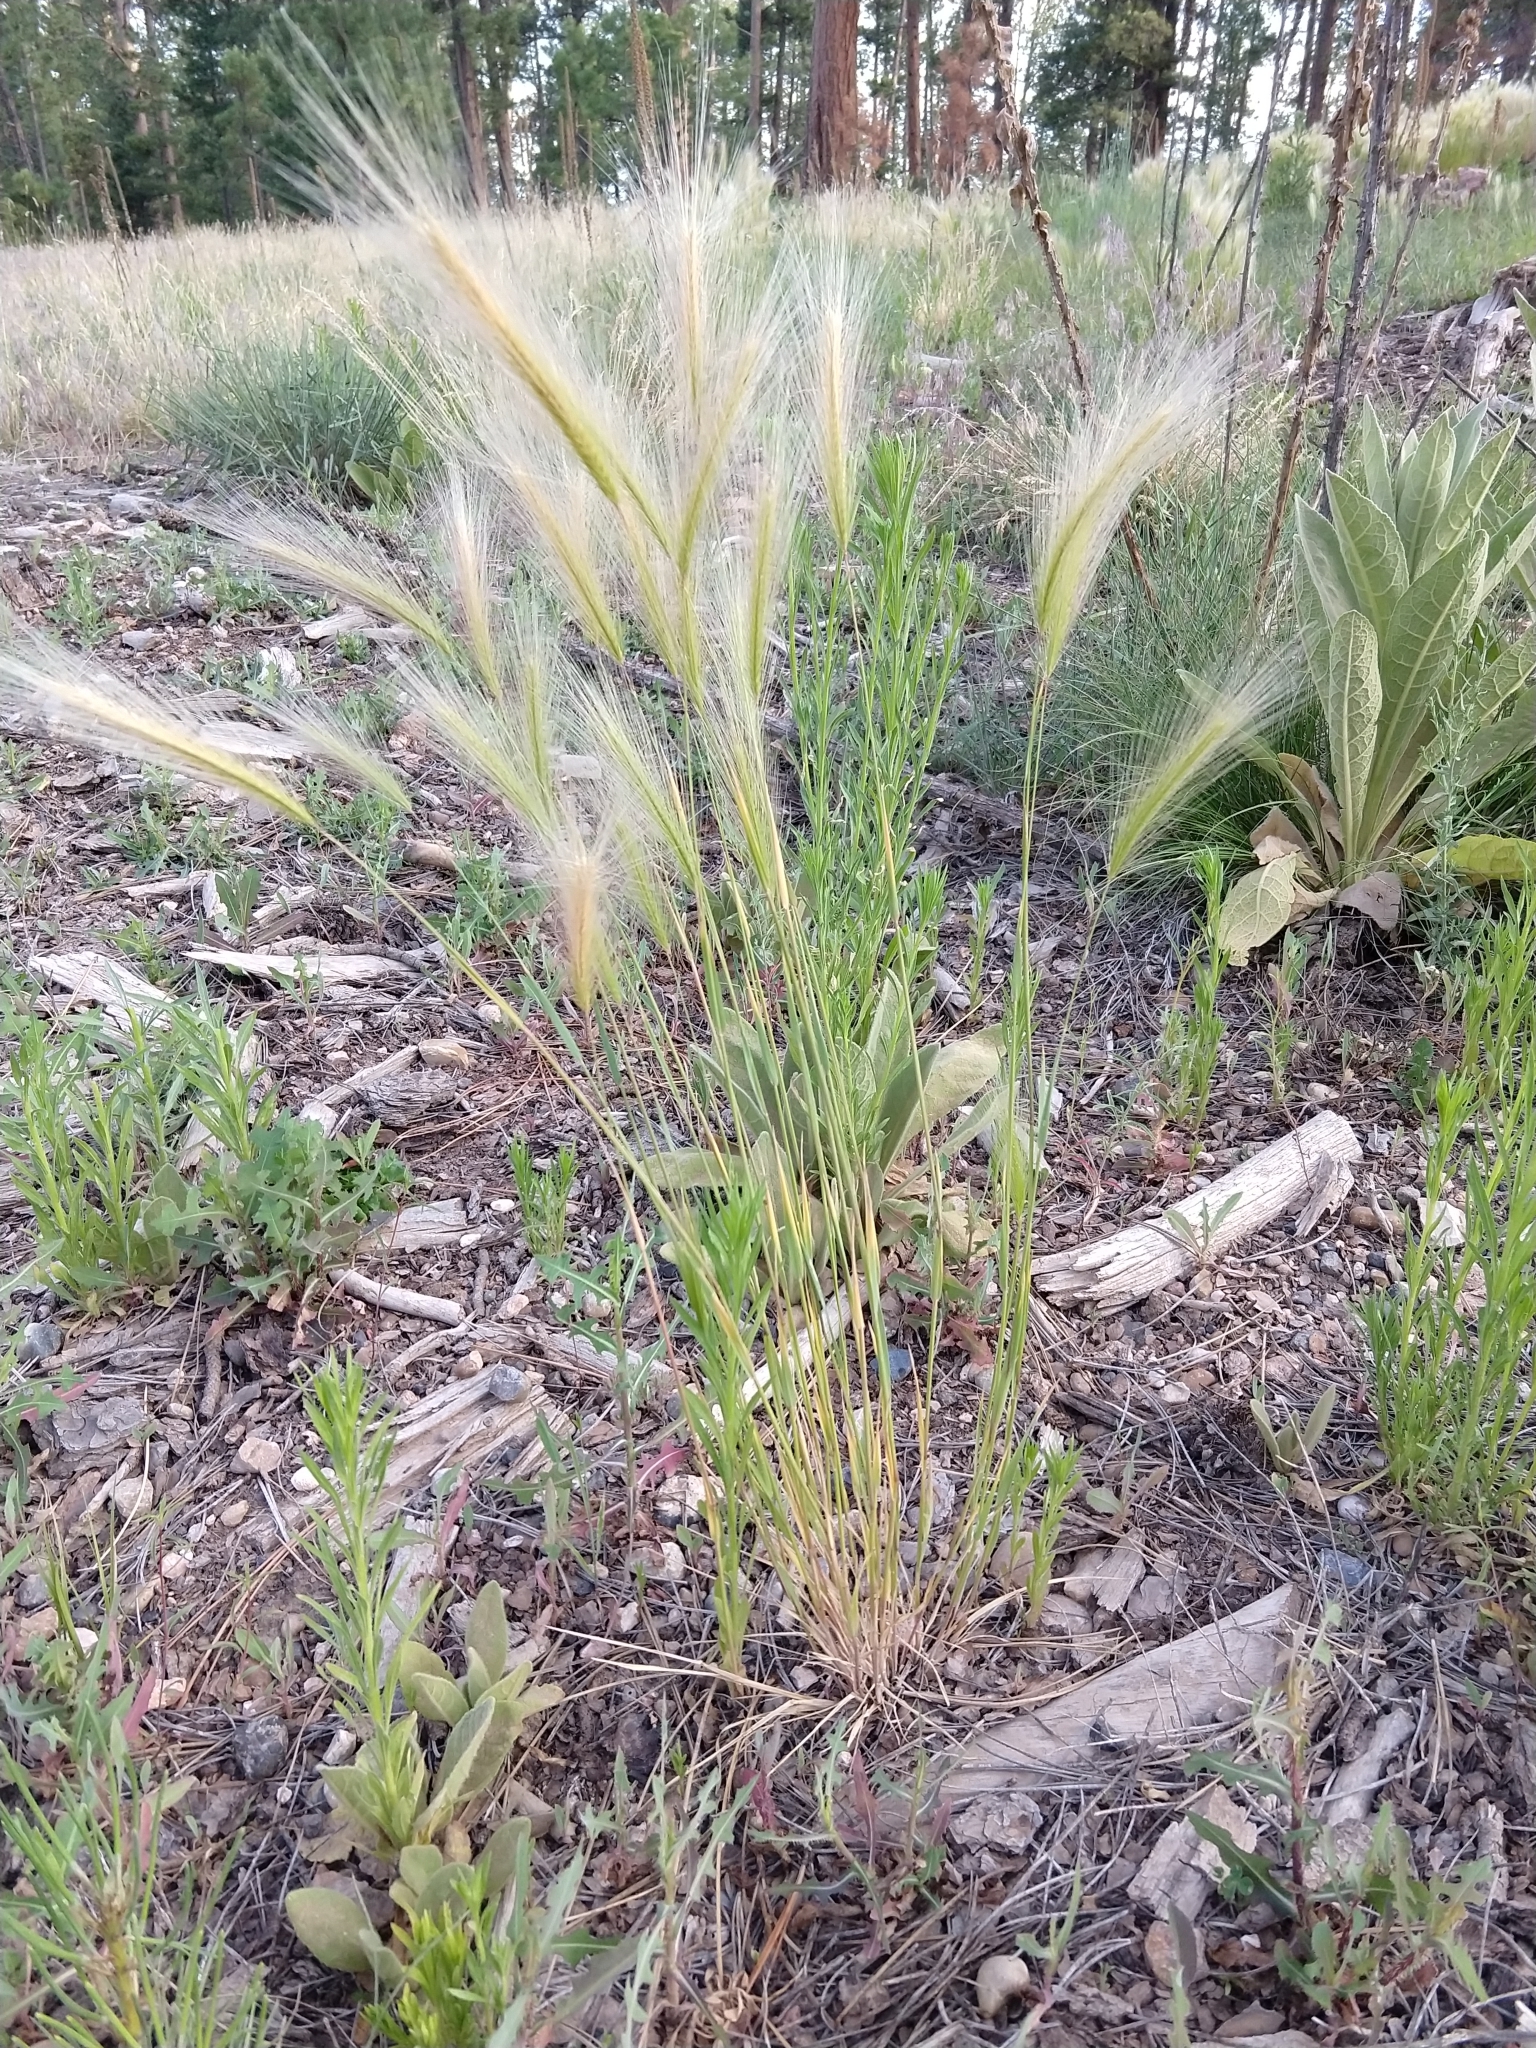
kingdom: Plantae
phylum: Tracheophyta
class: Liliopsida
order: Poales
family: Poaceae
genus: Hordeum
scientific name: Hordeum jubatum
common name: Foxtail barley
